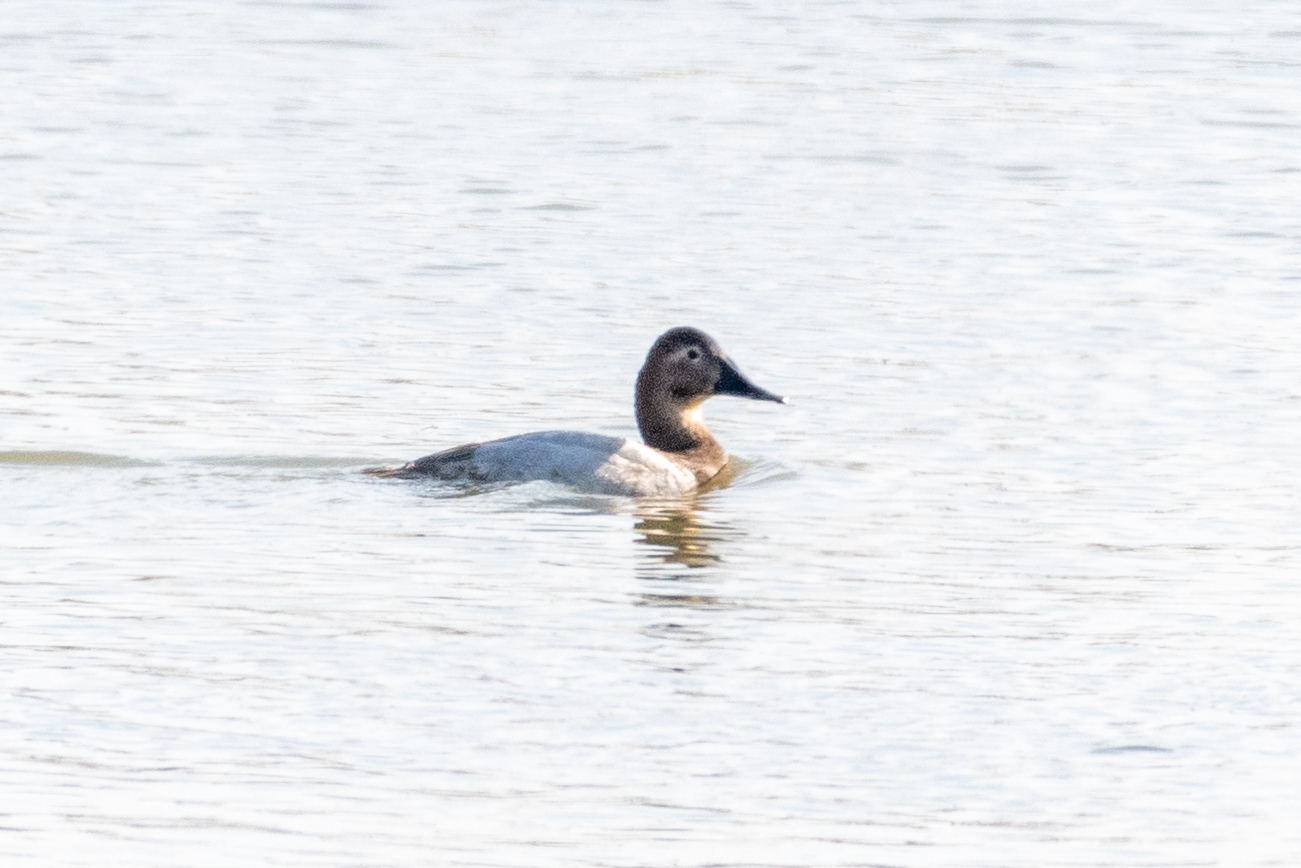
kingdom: Animalia
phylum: Chordata
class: Aves
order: Anseriformes
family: Anatidae
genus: Aythya
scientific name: Aythya valisineria
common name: Canvasback
